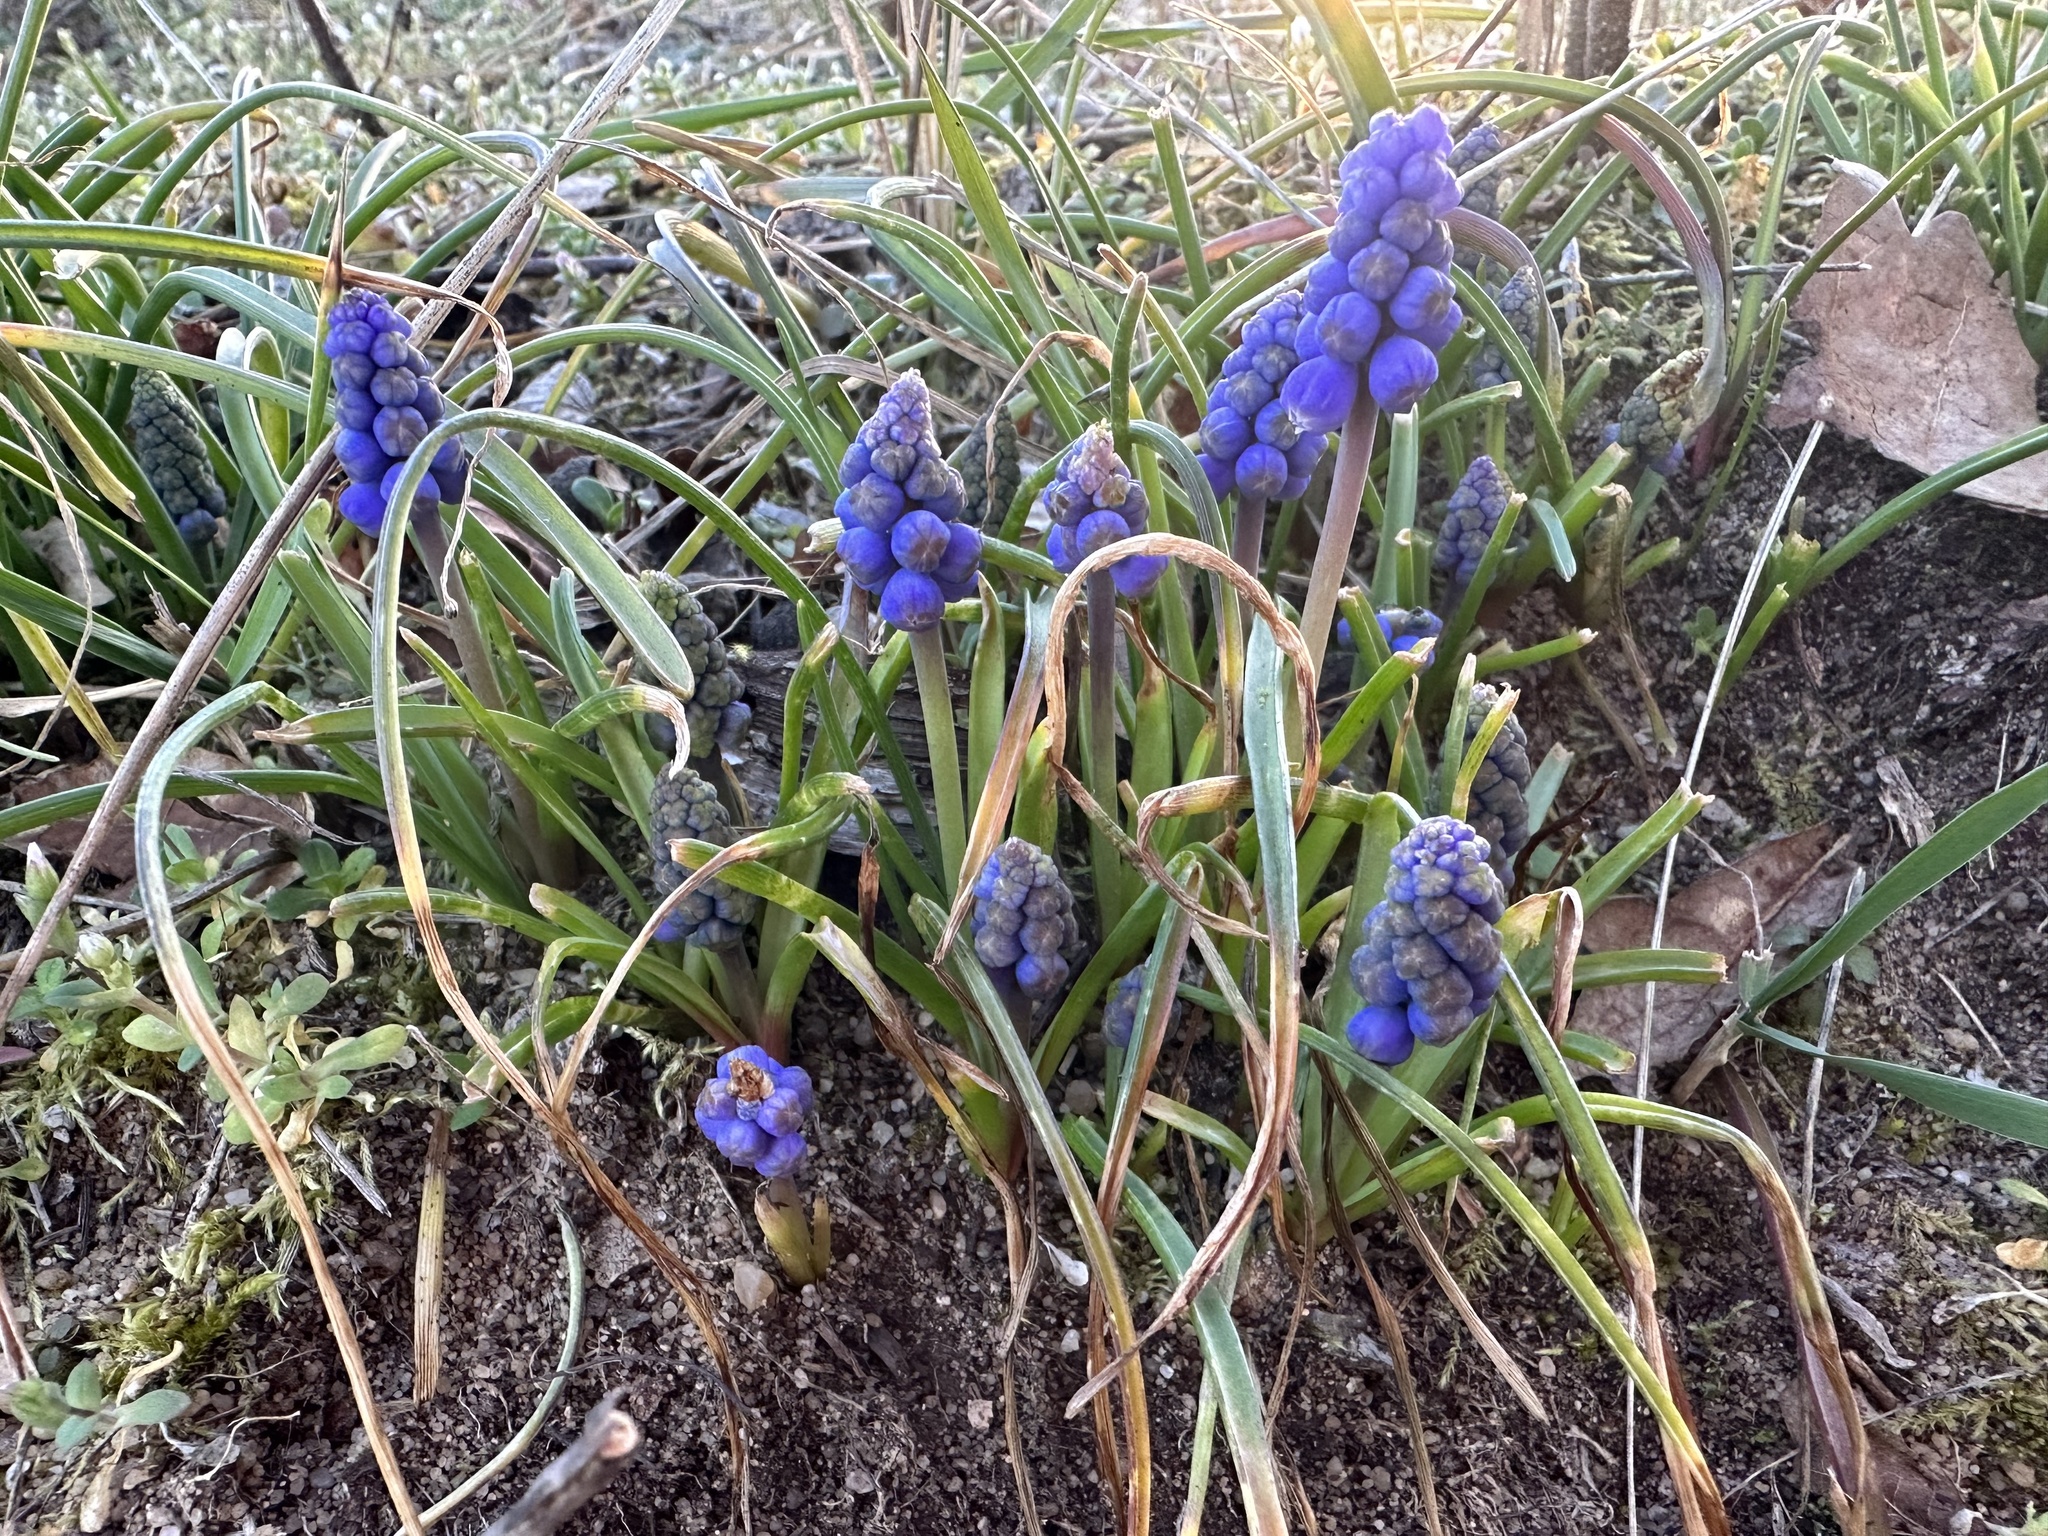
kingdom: Plantae
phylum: Tracheophyta
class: Liliopsida
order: Asparagales
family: Asparagaceae
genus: Muscari
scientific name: Muscari botryoides
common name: Compact grape-hyacinth
